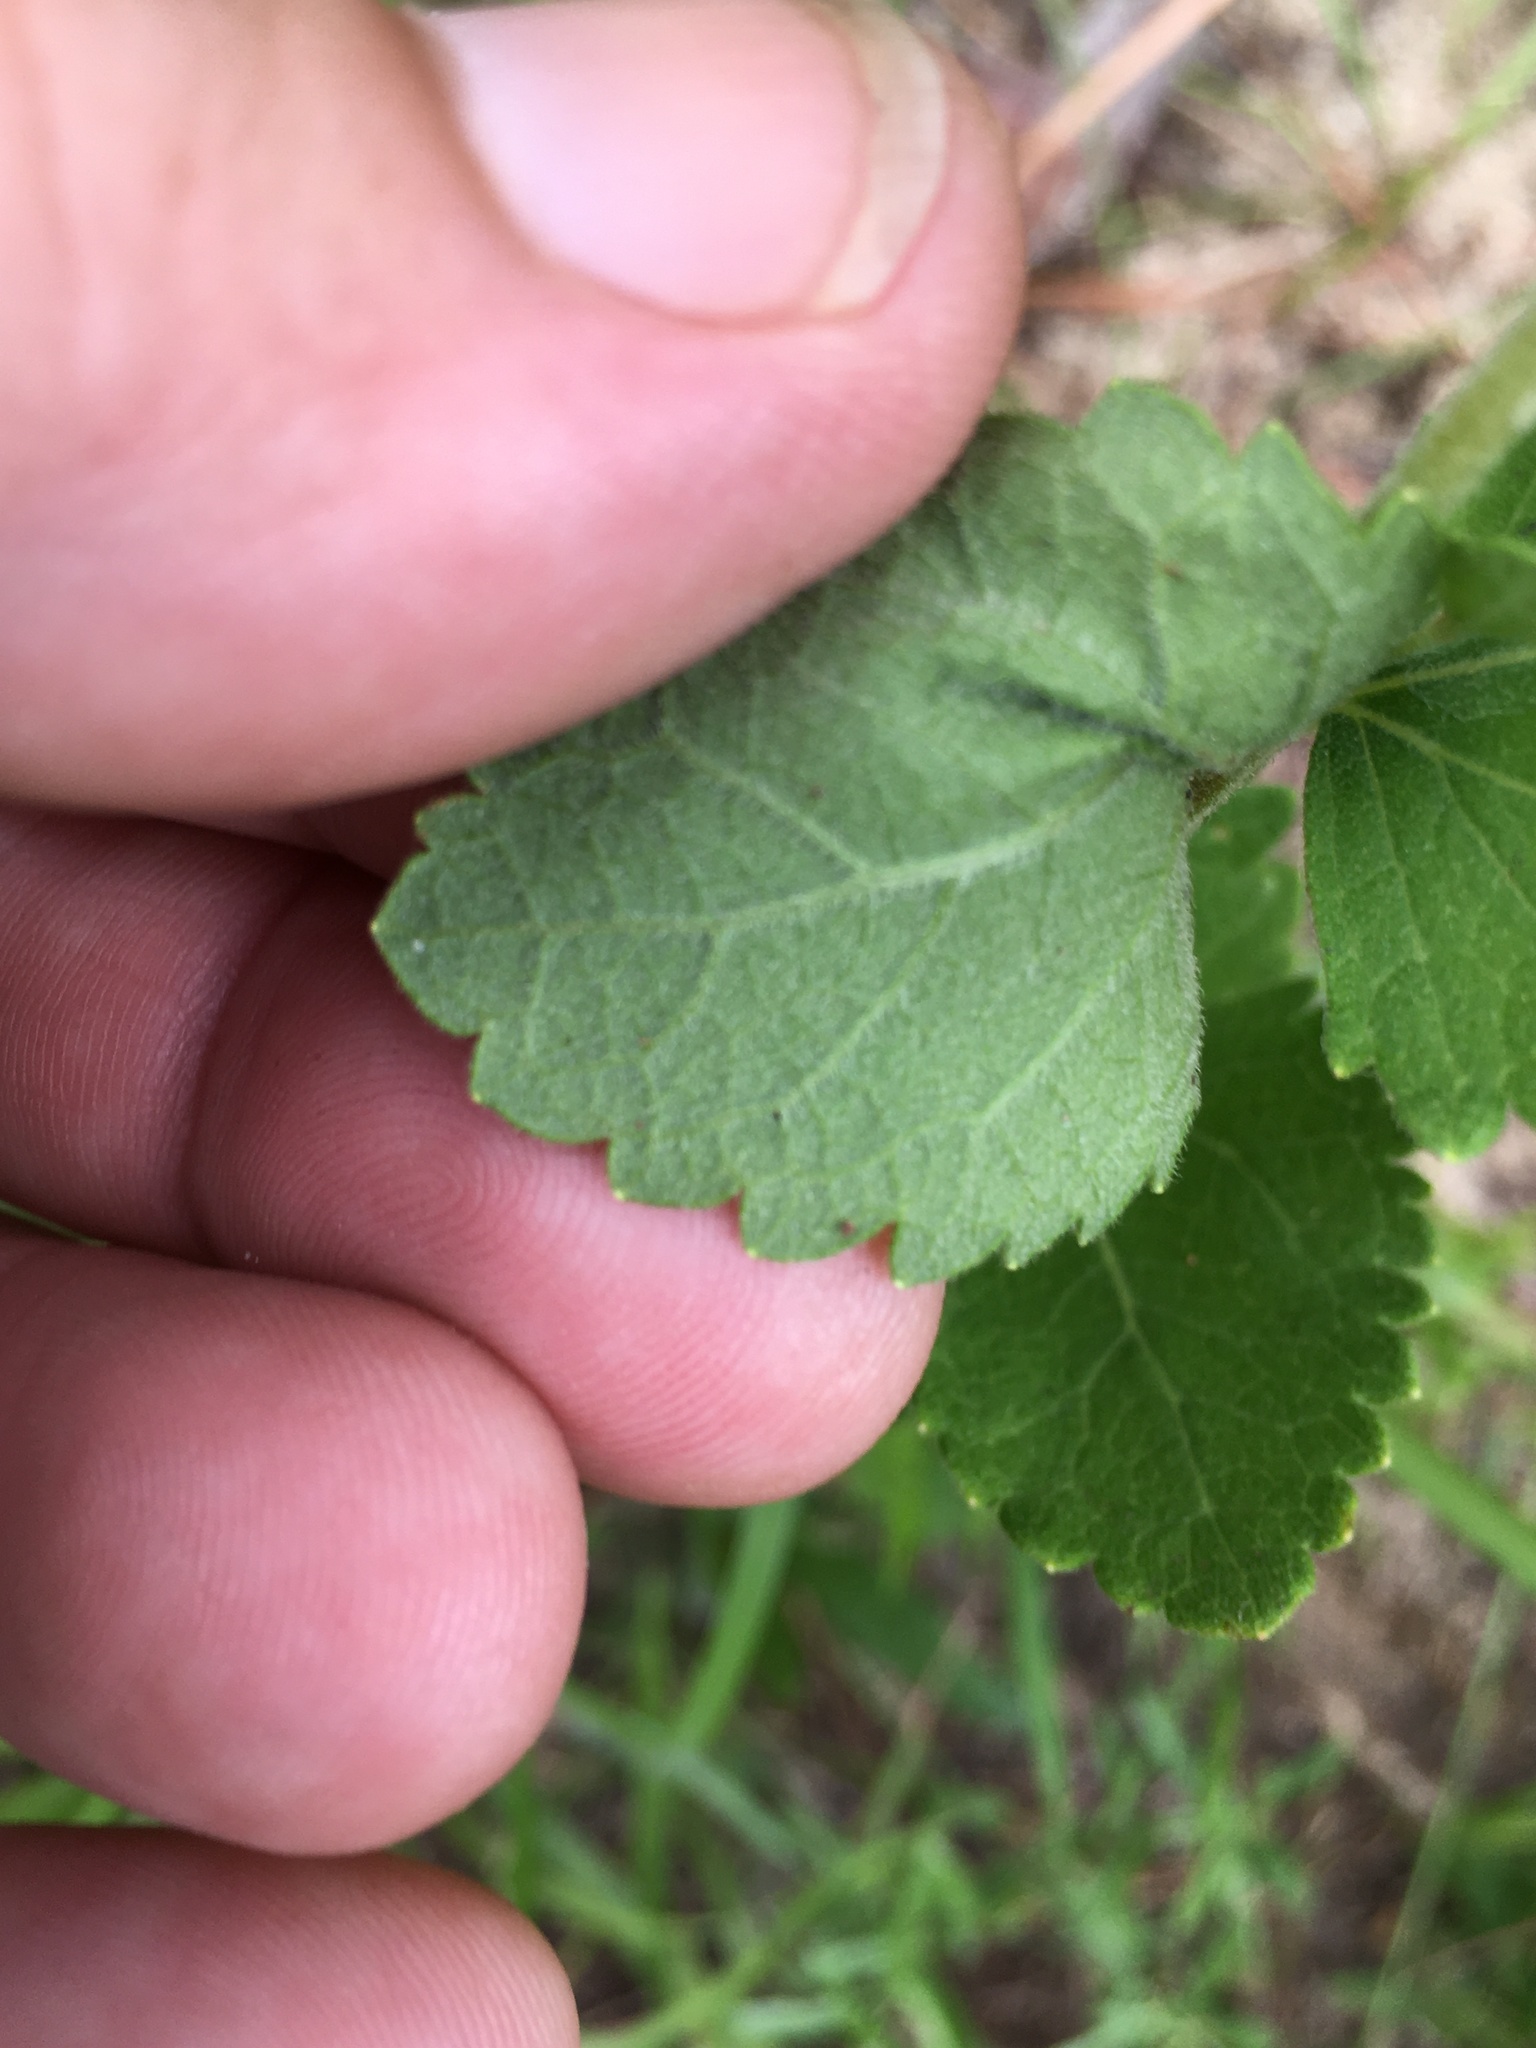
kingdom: Plantae
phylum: Tracheophyta
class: Magnoliopsida
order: Asterales
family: Asteraceae
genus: Eupatorium
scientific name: Eupatorium rotundifolium
